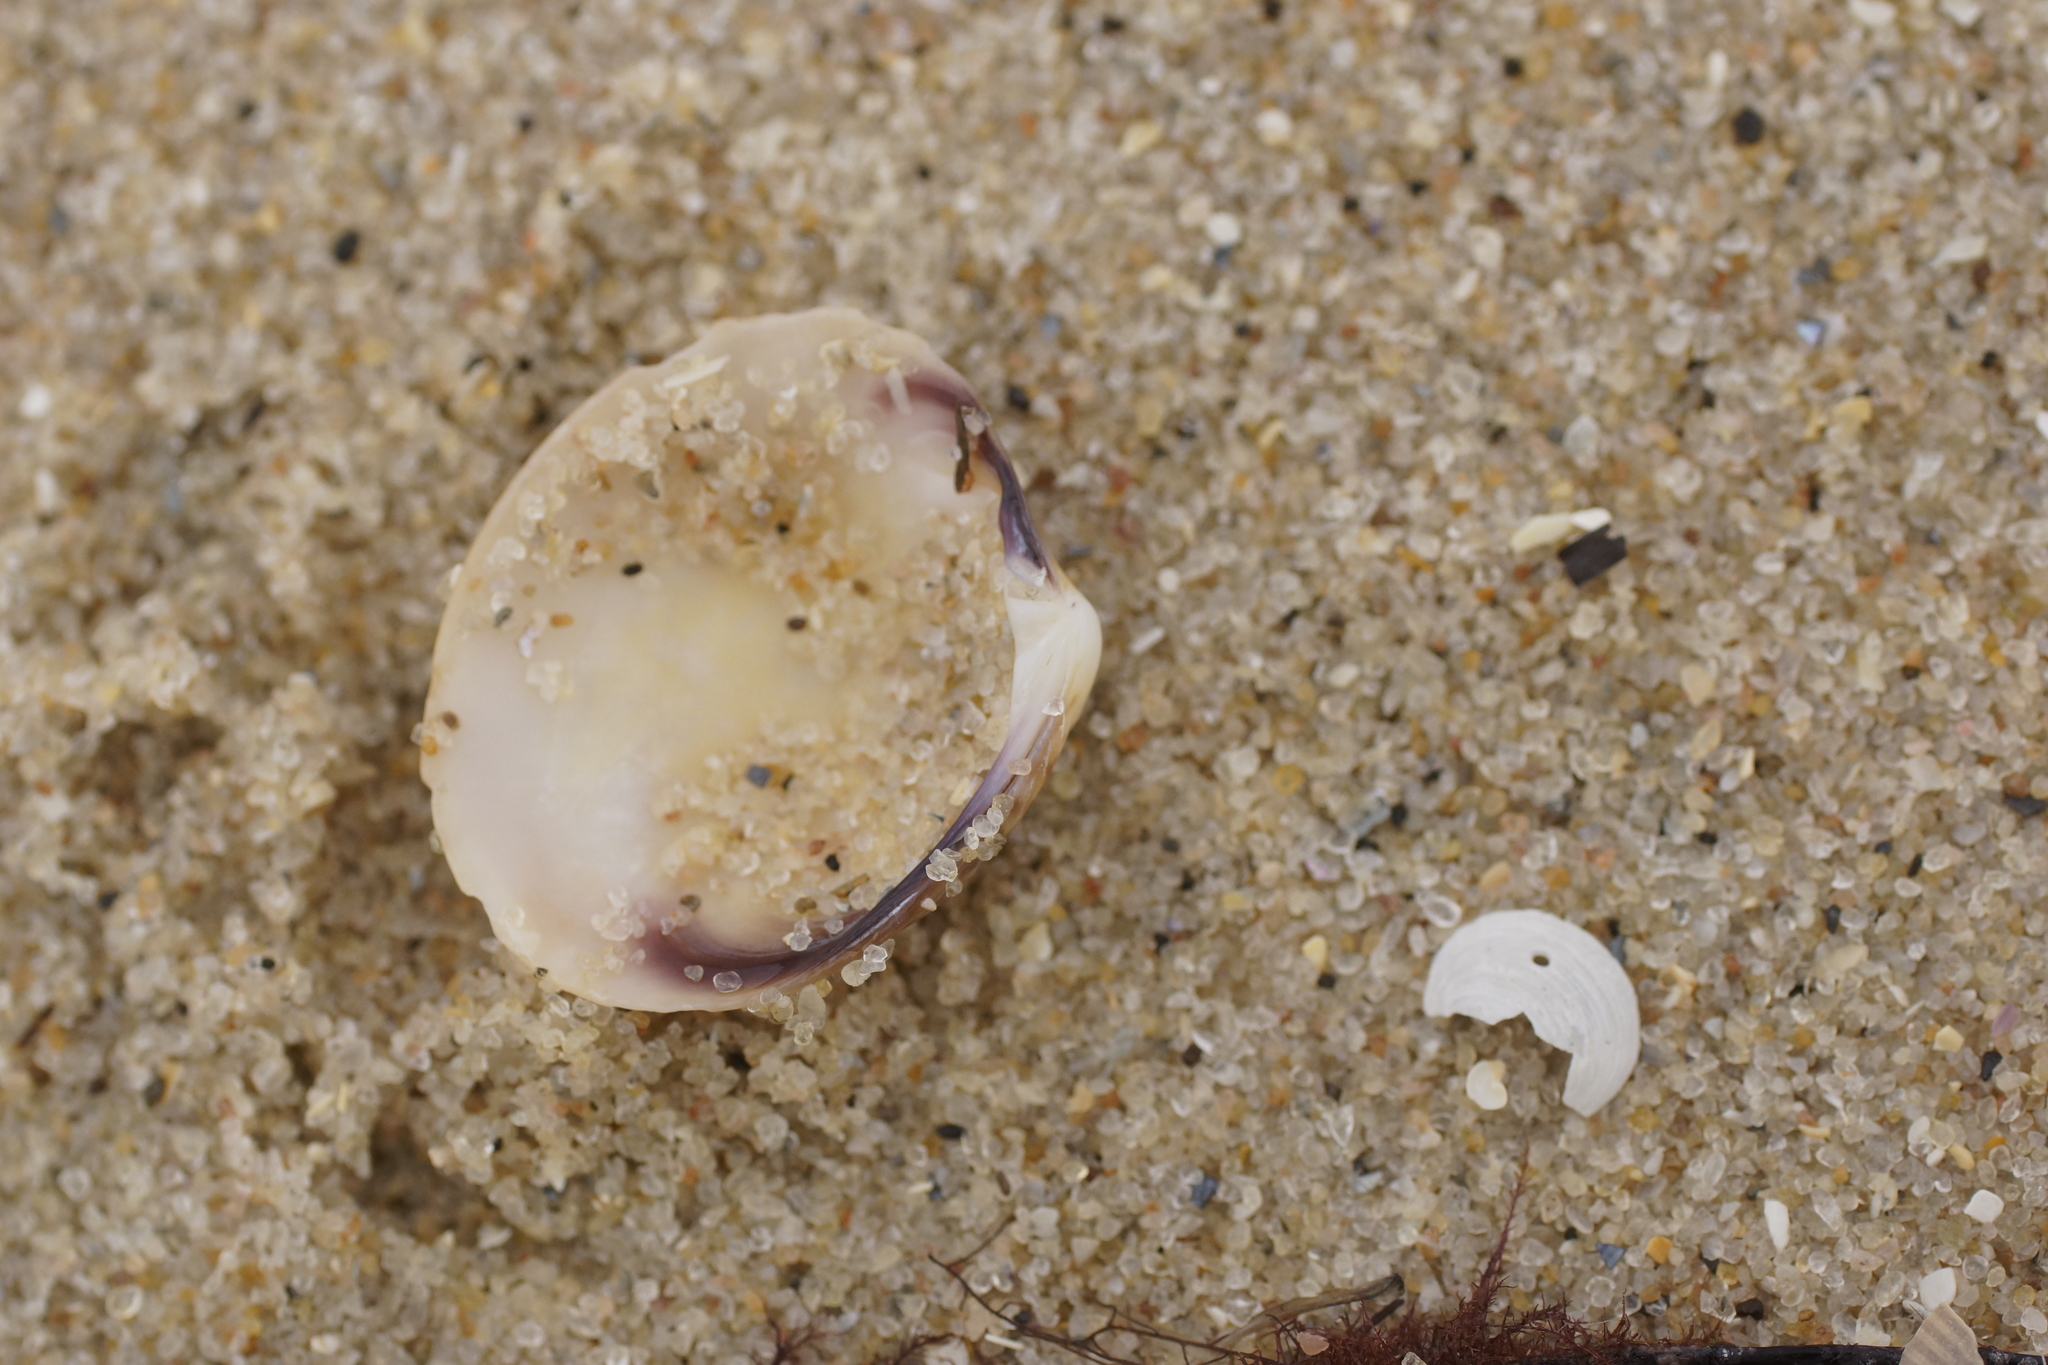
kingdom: Animalia
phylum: Mollusca
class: Bivalvia
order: Venerida
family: Veneridae
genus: Katelysia
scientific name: Katelysia rhytiphora
